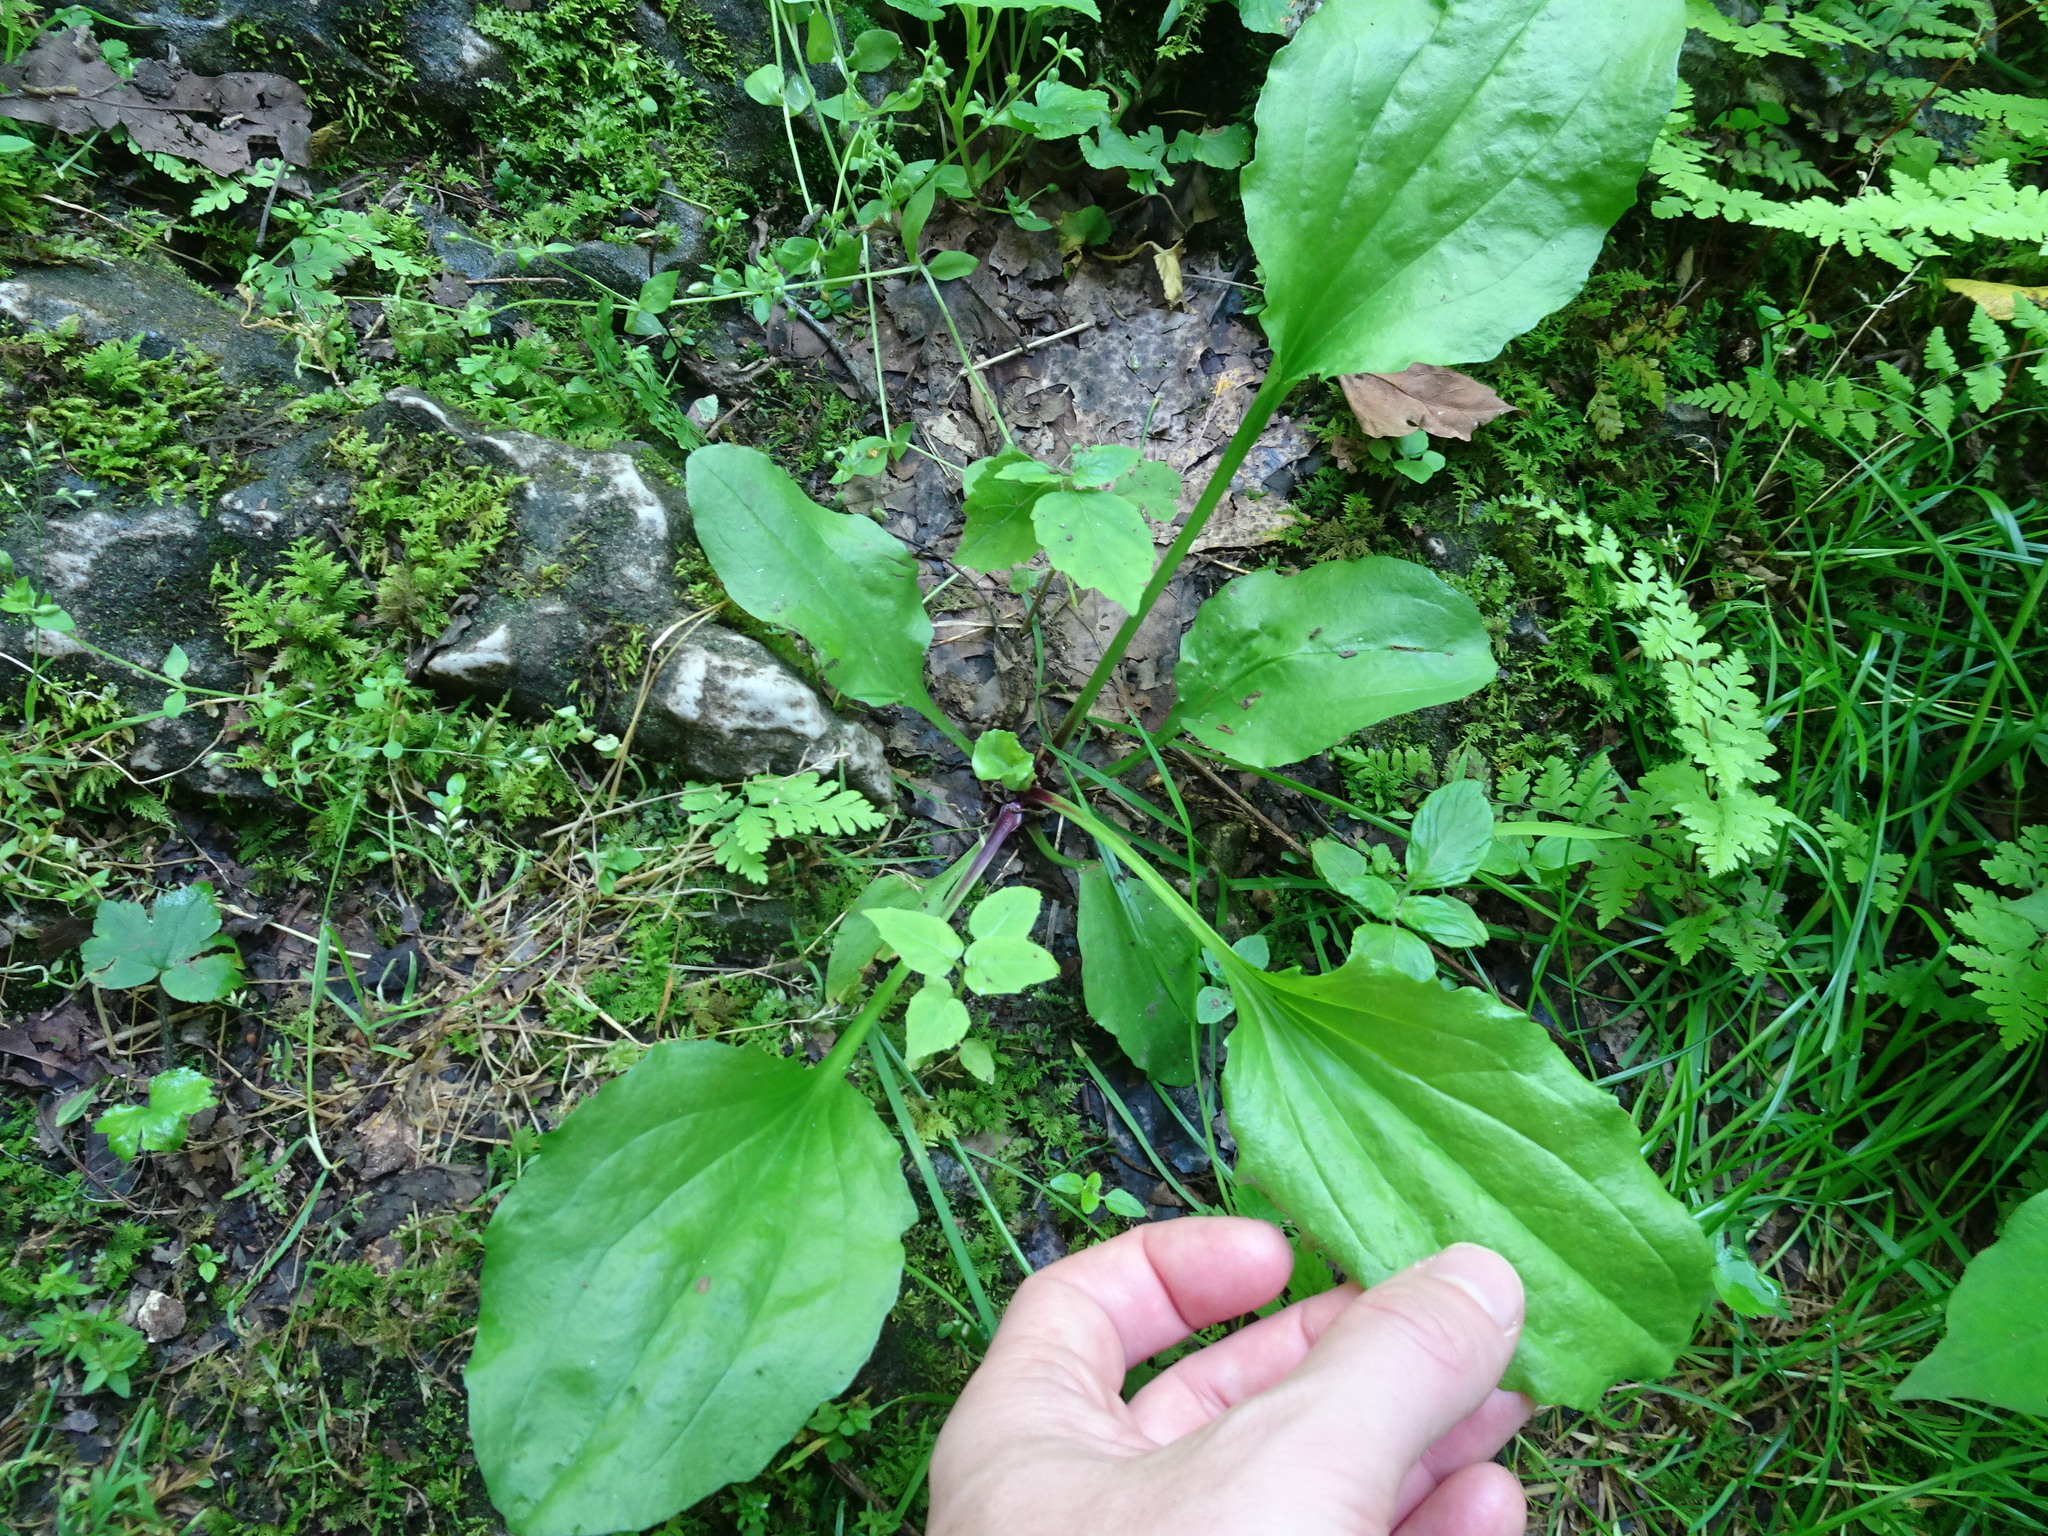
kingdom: Plantae
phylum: Tracheophyta
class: Magnoliopsida
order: Lamiales
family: Plantaginaceae
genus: Plantago
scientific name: Plantago rugelii
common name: American plantain
